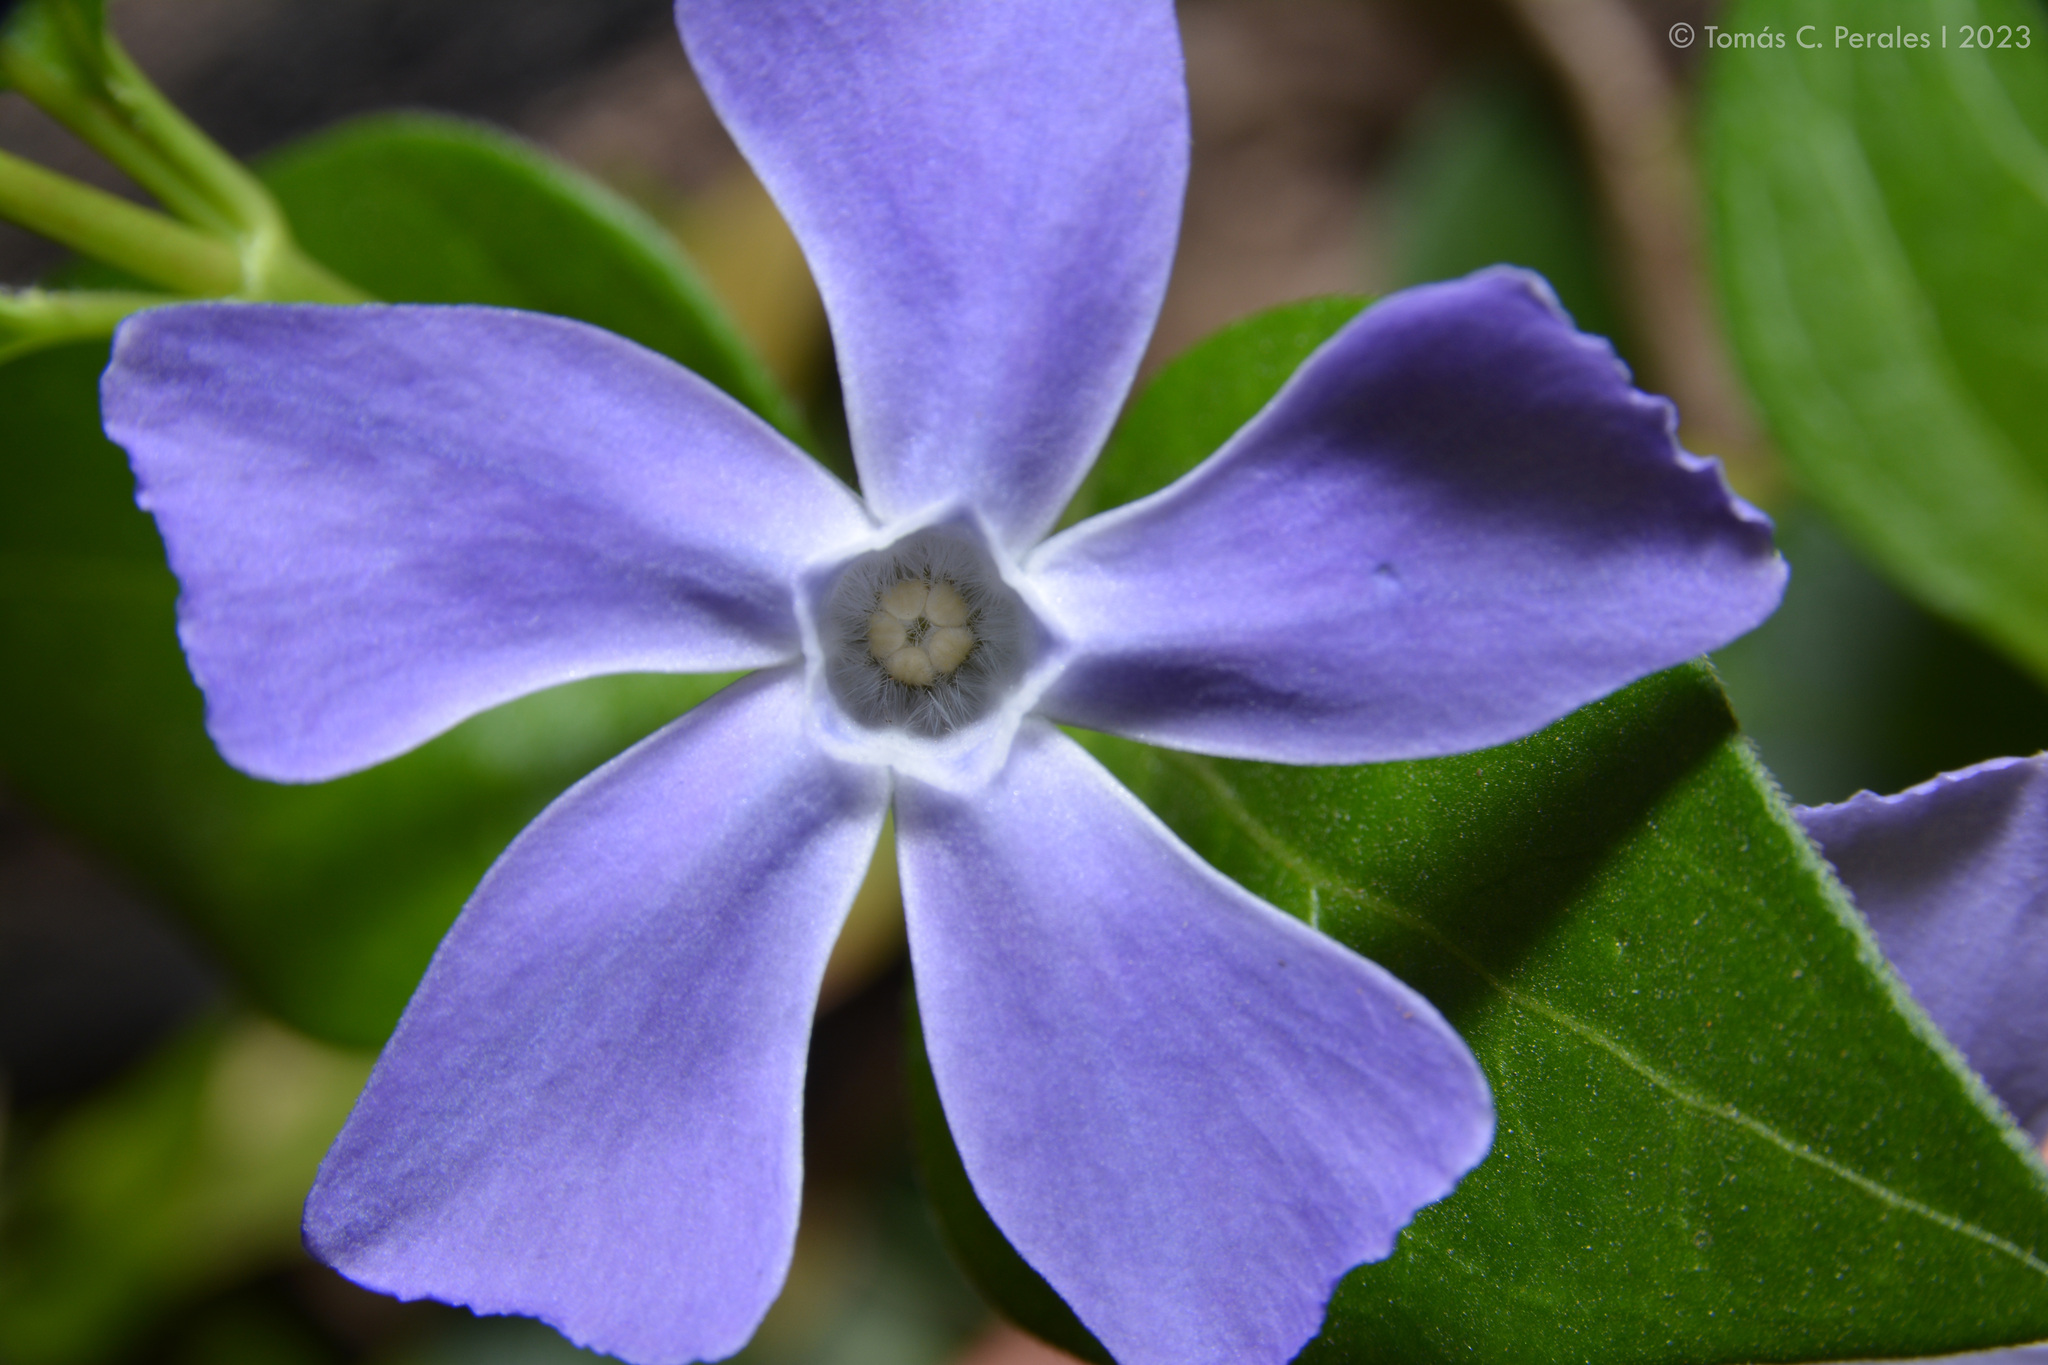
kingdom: Plantae
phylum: Tracheophyta
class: Magnoliopsida
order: Gentianales
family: Apocynaceae
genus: Vinca
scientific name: Vinca major
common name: Greater periwinkle
